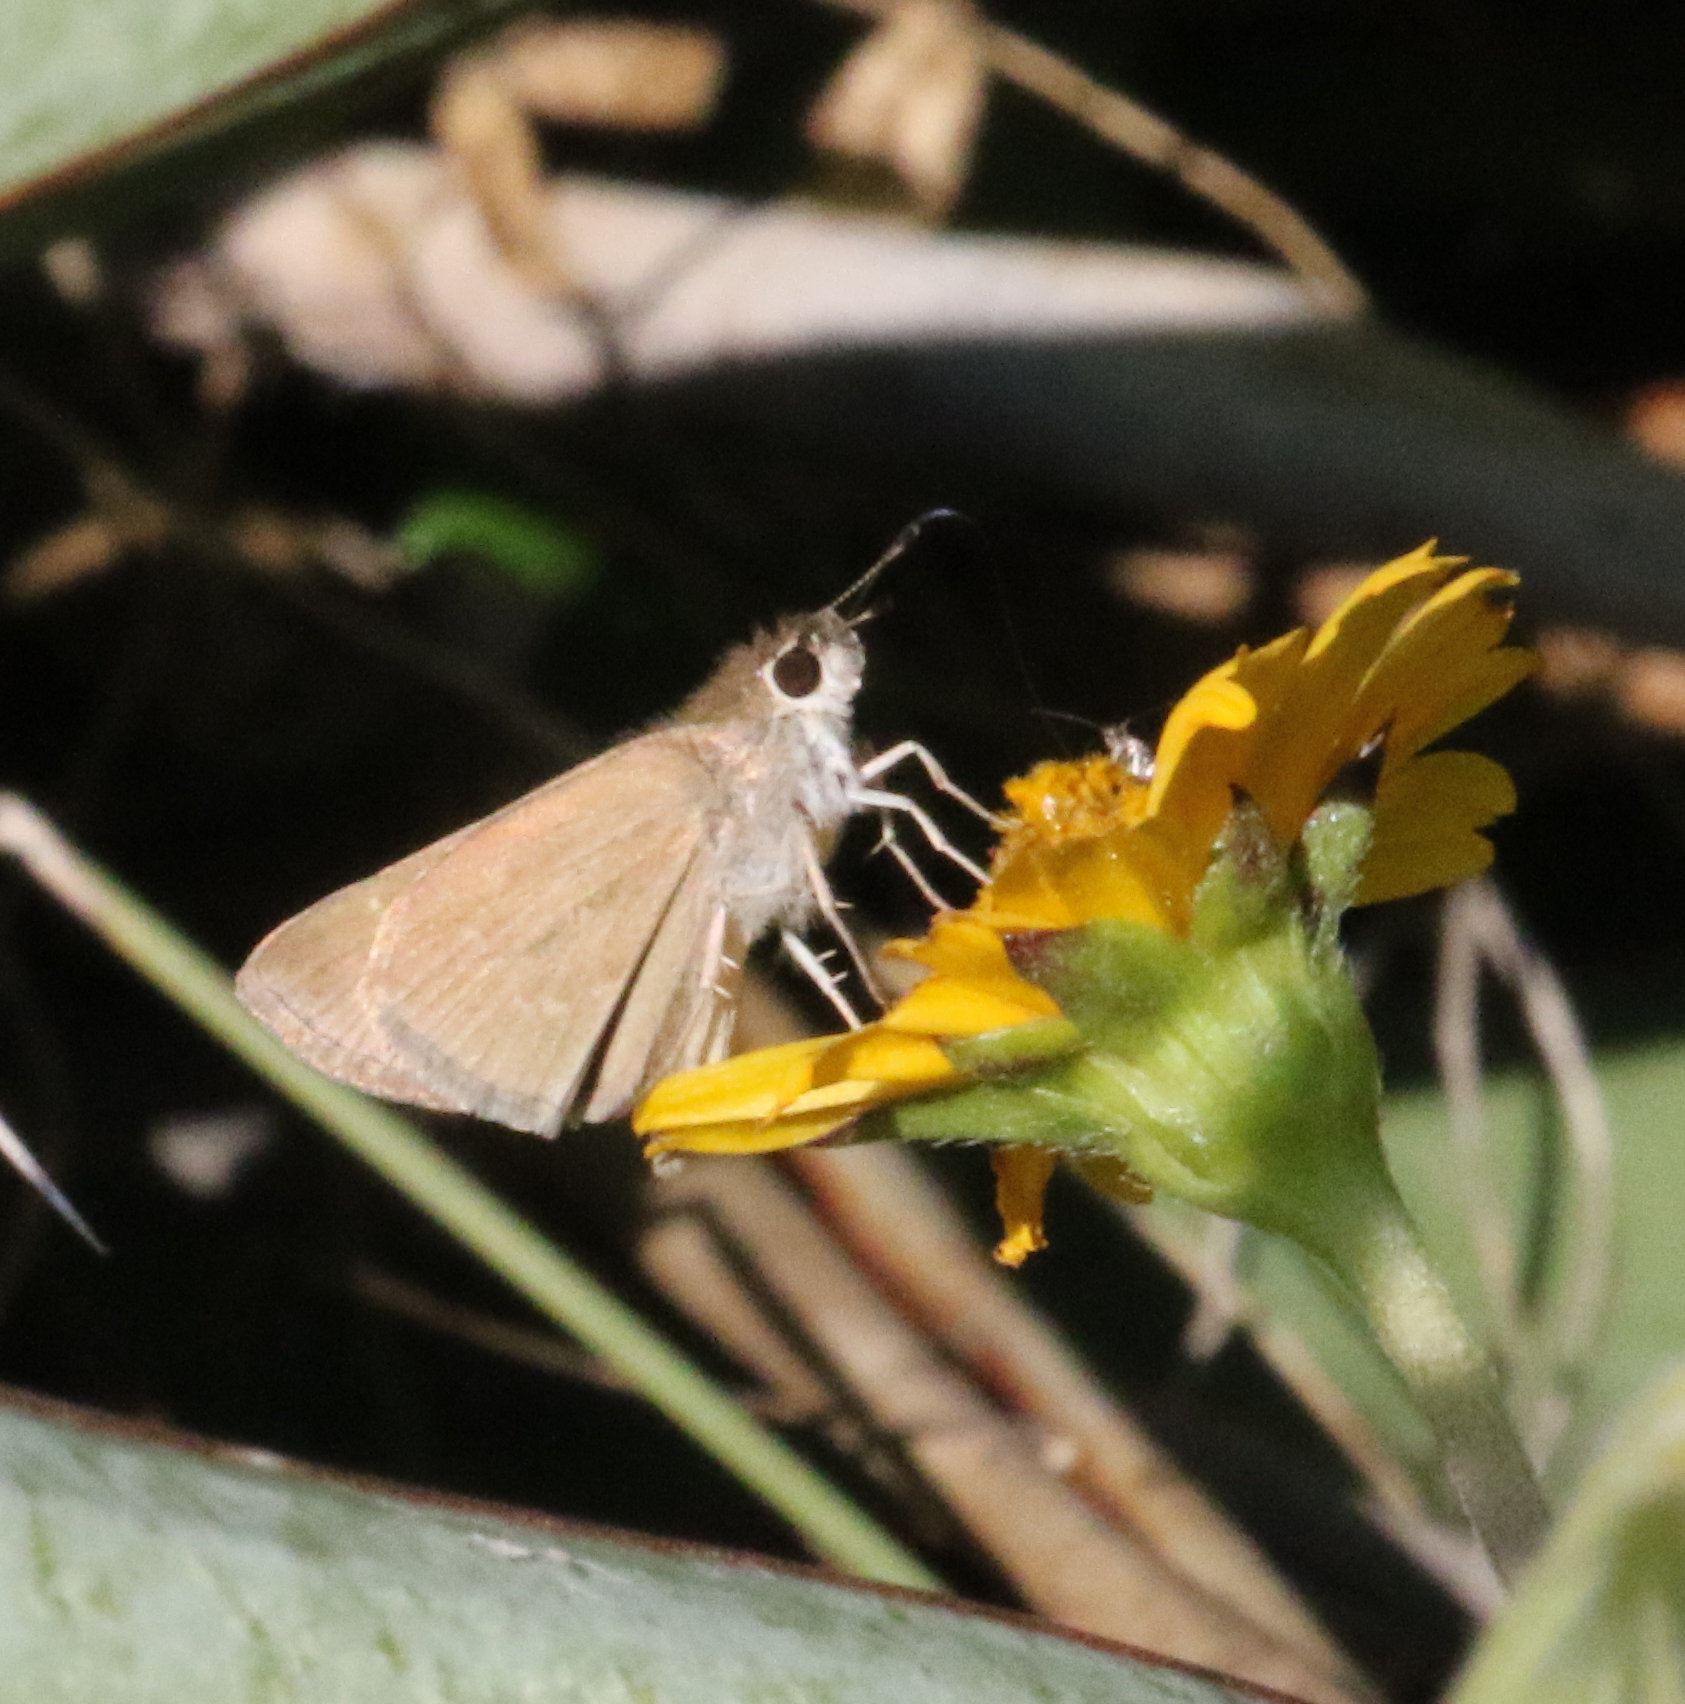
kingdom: Animalia
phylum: Arthropoda
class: Insecta
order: Lepidoptera
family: Hesperiidae
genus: Lerodea
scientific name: Lerodea eufala
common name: Eufala skipper
